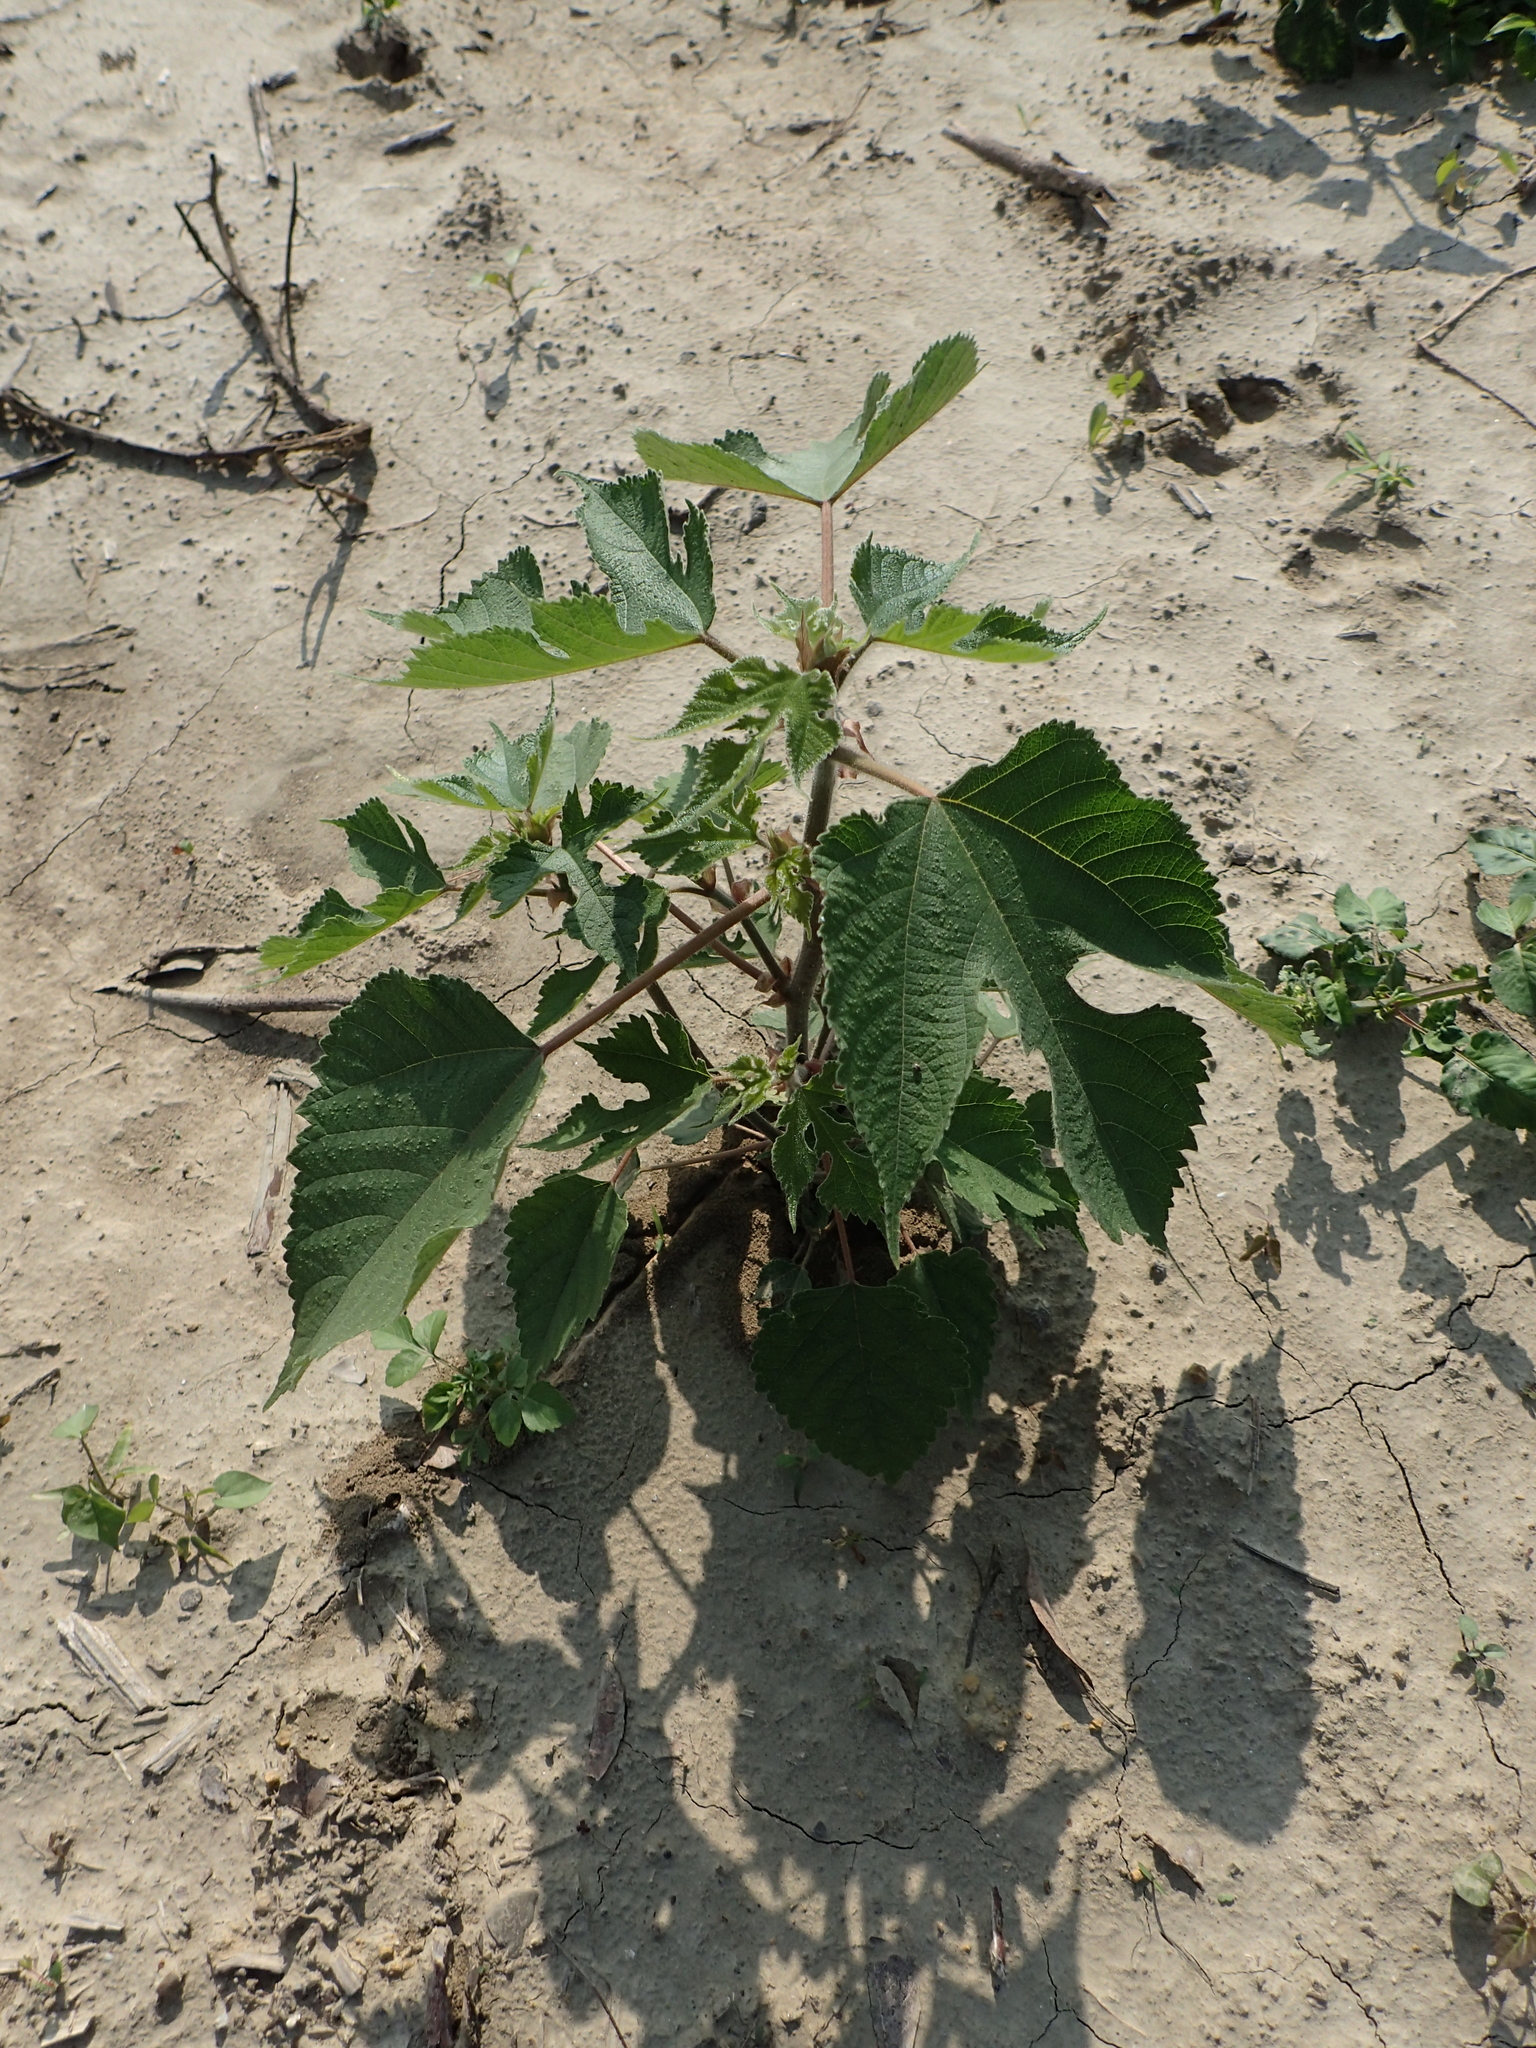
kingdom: Plantae
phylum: Tracheophyta
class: Magnoliopsida
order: Rosales
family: Moraceae
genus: Broussonetia
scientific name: Broussonetia papyrifera
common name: Paper mulberry
